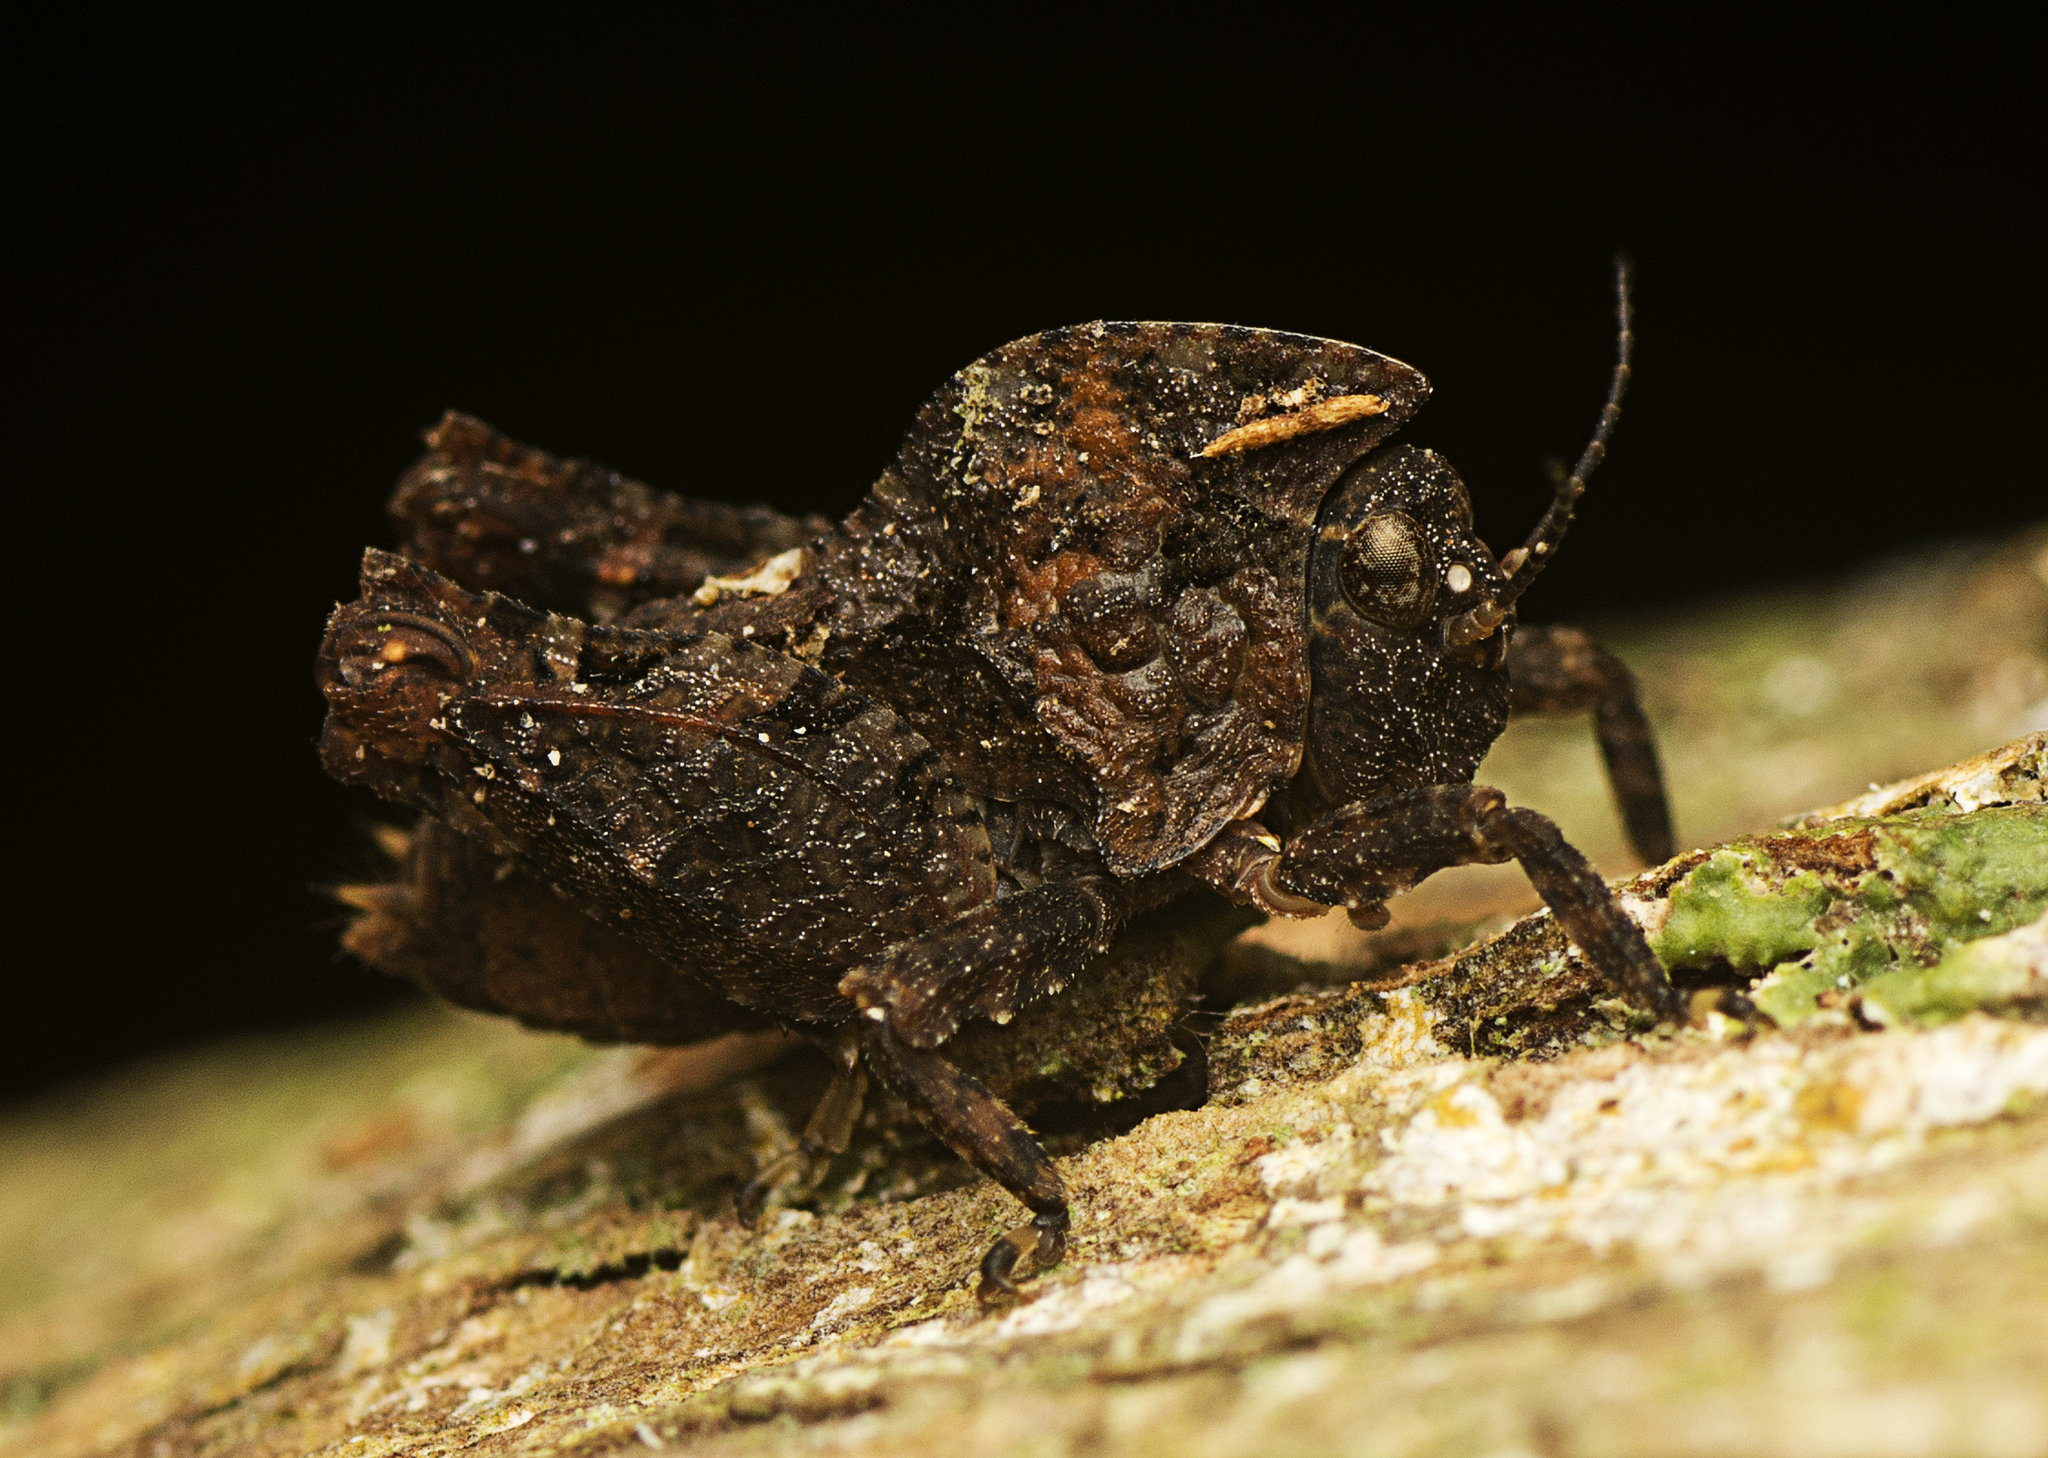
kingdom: Animalia
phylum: Arthropoda
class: Insecta
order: Orthoptera
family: Tetrigidae
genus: Paraselina
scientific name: Paraselina brunneri
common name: Angled australian barkhopper
